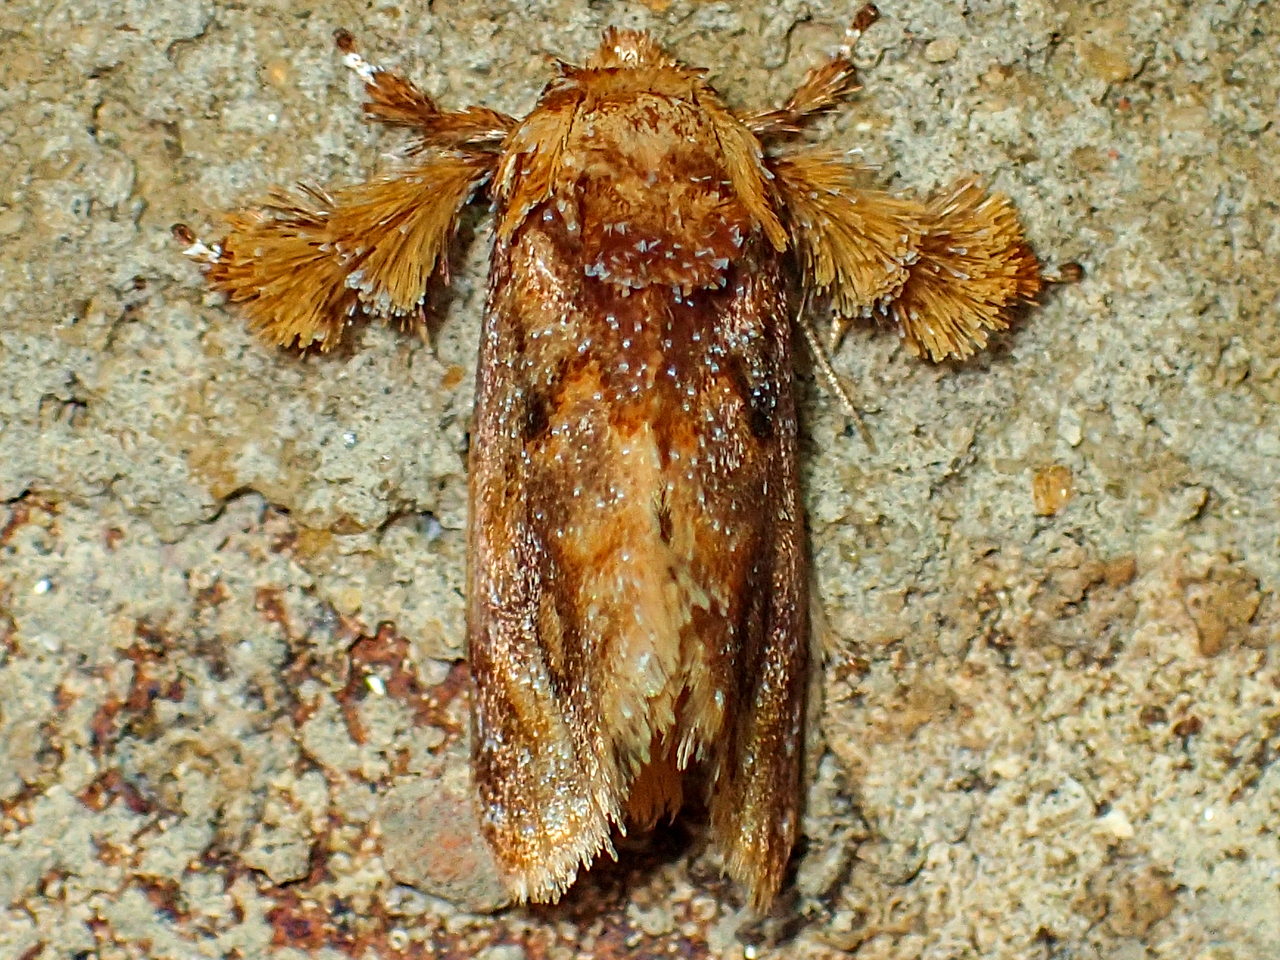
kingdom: Animalia
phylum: Arthropoda
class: Insecta
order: Lepidoptera
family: Limacodidae
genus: Isochaetes
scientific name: Isochaetes beutenmuelleri
